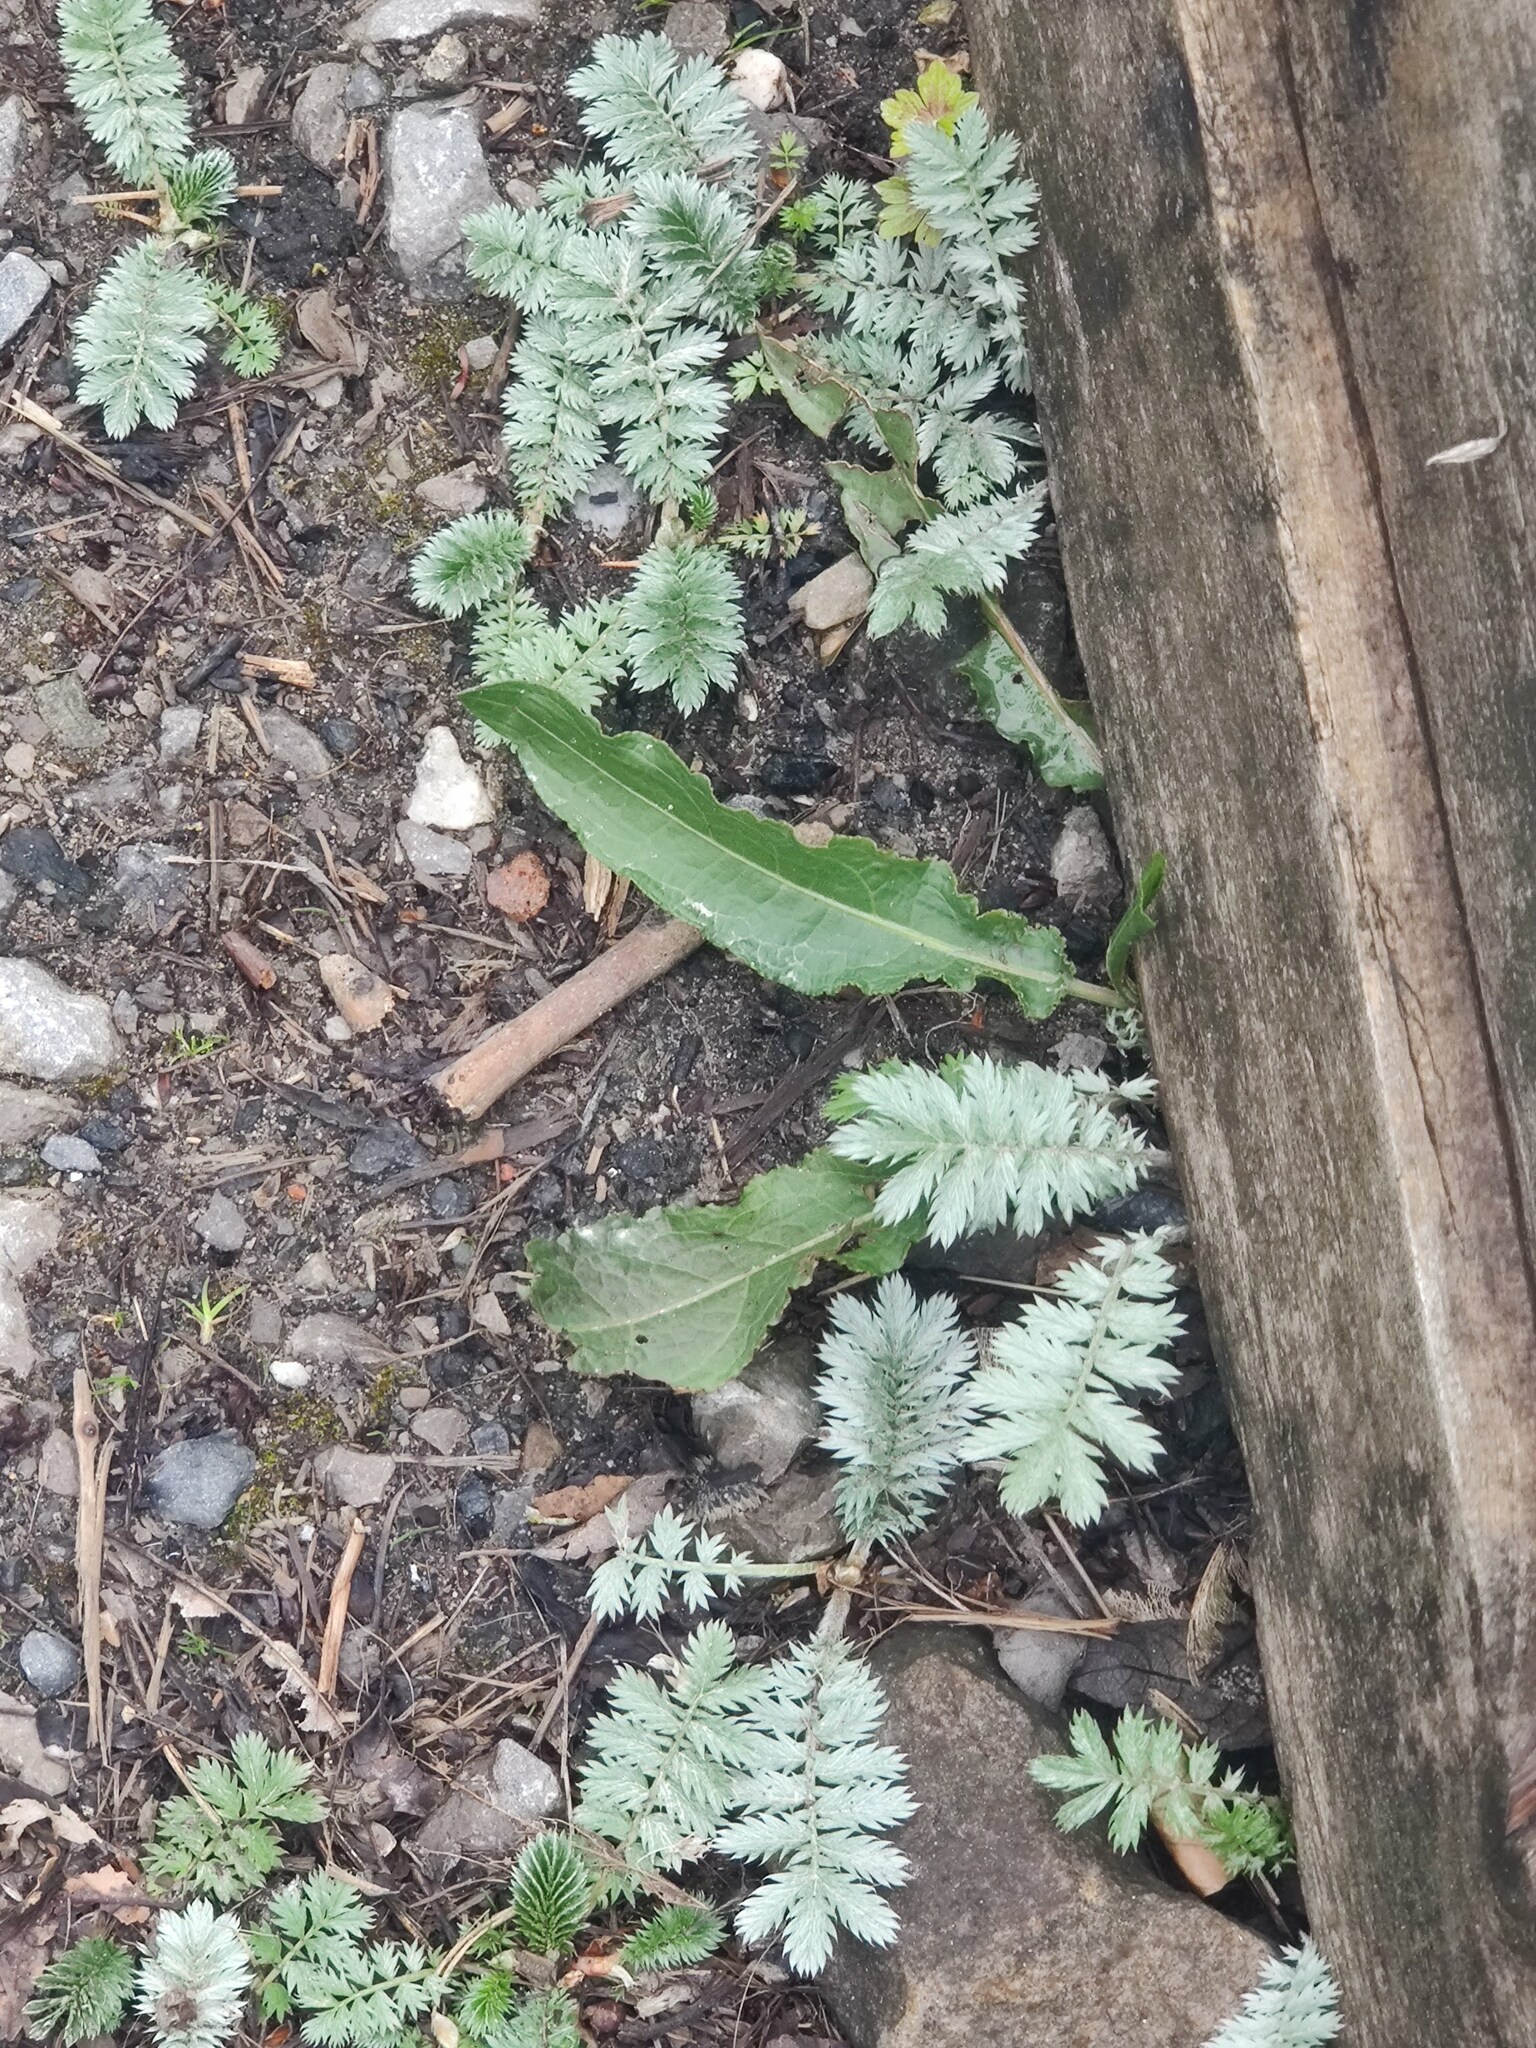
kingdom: Plantae
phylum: Tracheophyta
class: Magnoliopsida
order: Rosales
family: Rosaceae
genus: Argentina
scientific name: Argentina anserina
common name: Common silverweed
